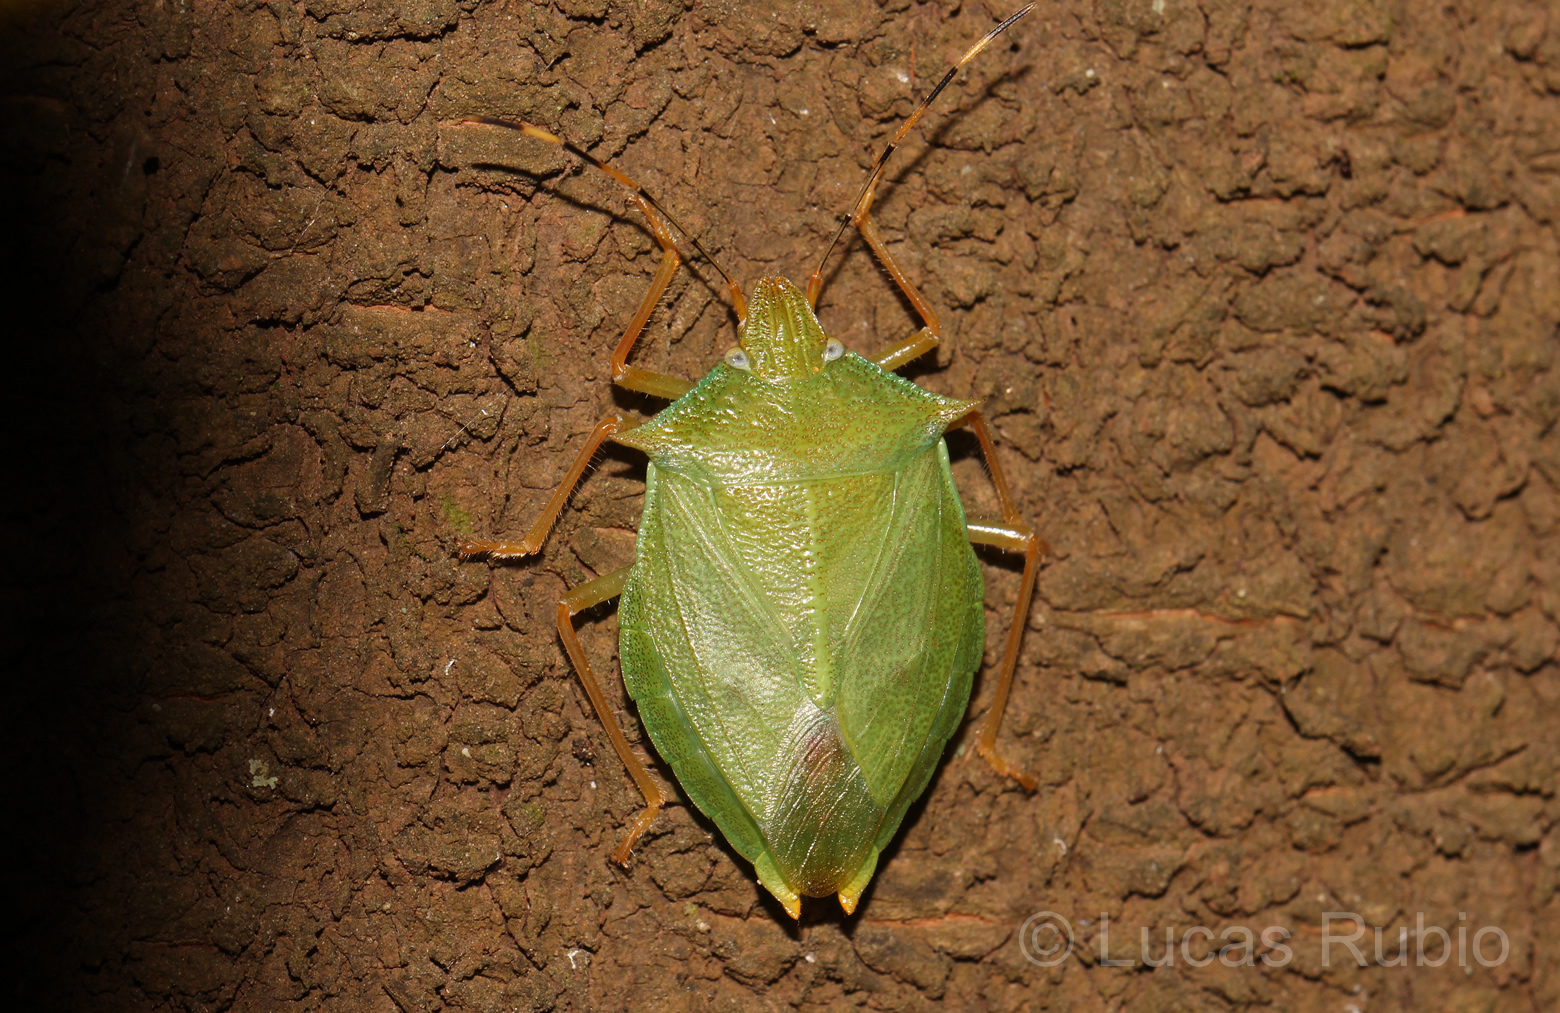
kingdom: Animalia
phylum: Arthropoda
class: Insecta
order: Hemiptera
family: Pentatomidae
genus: Chlorocoris
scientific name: Chlorocoris complanatus
